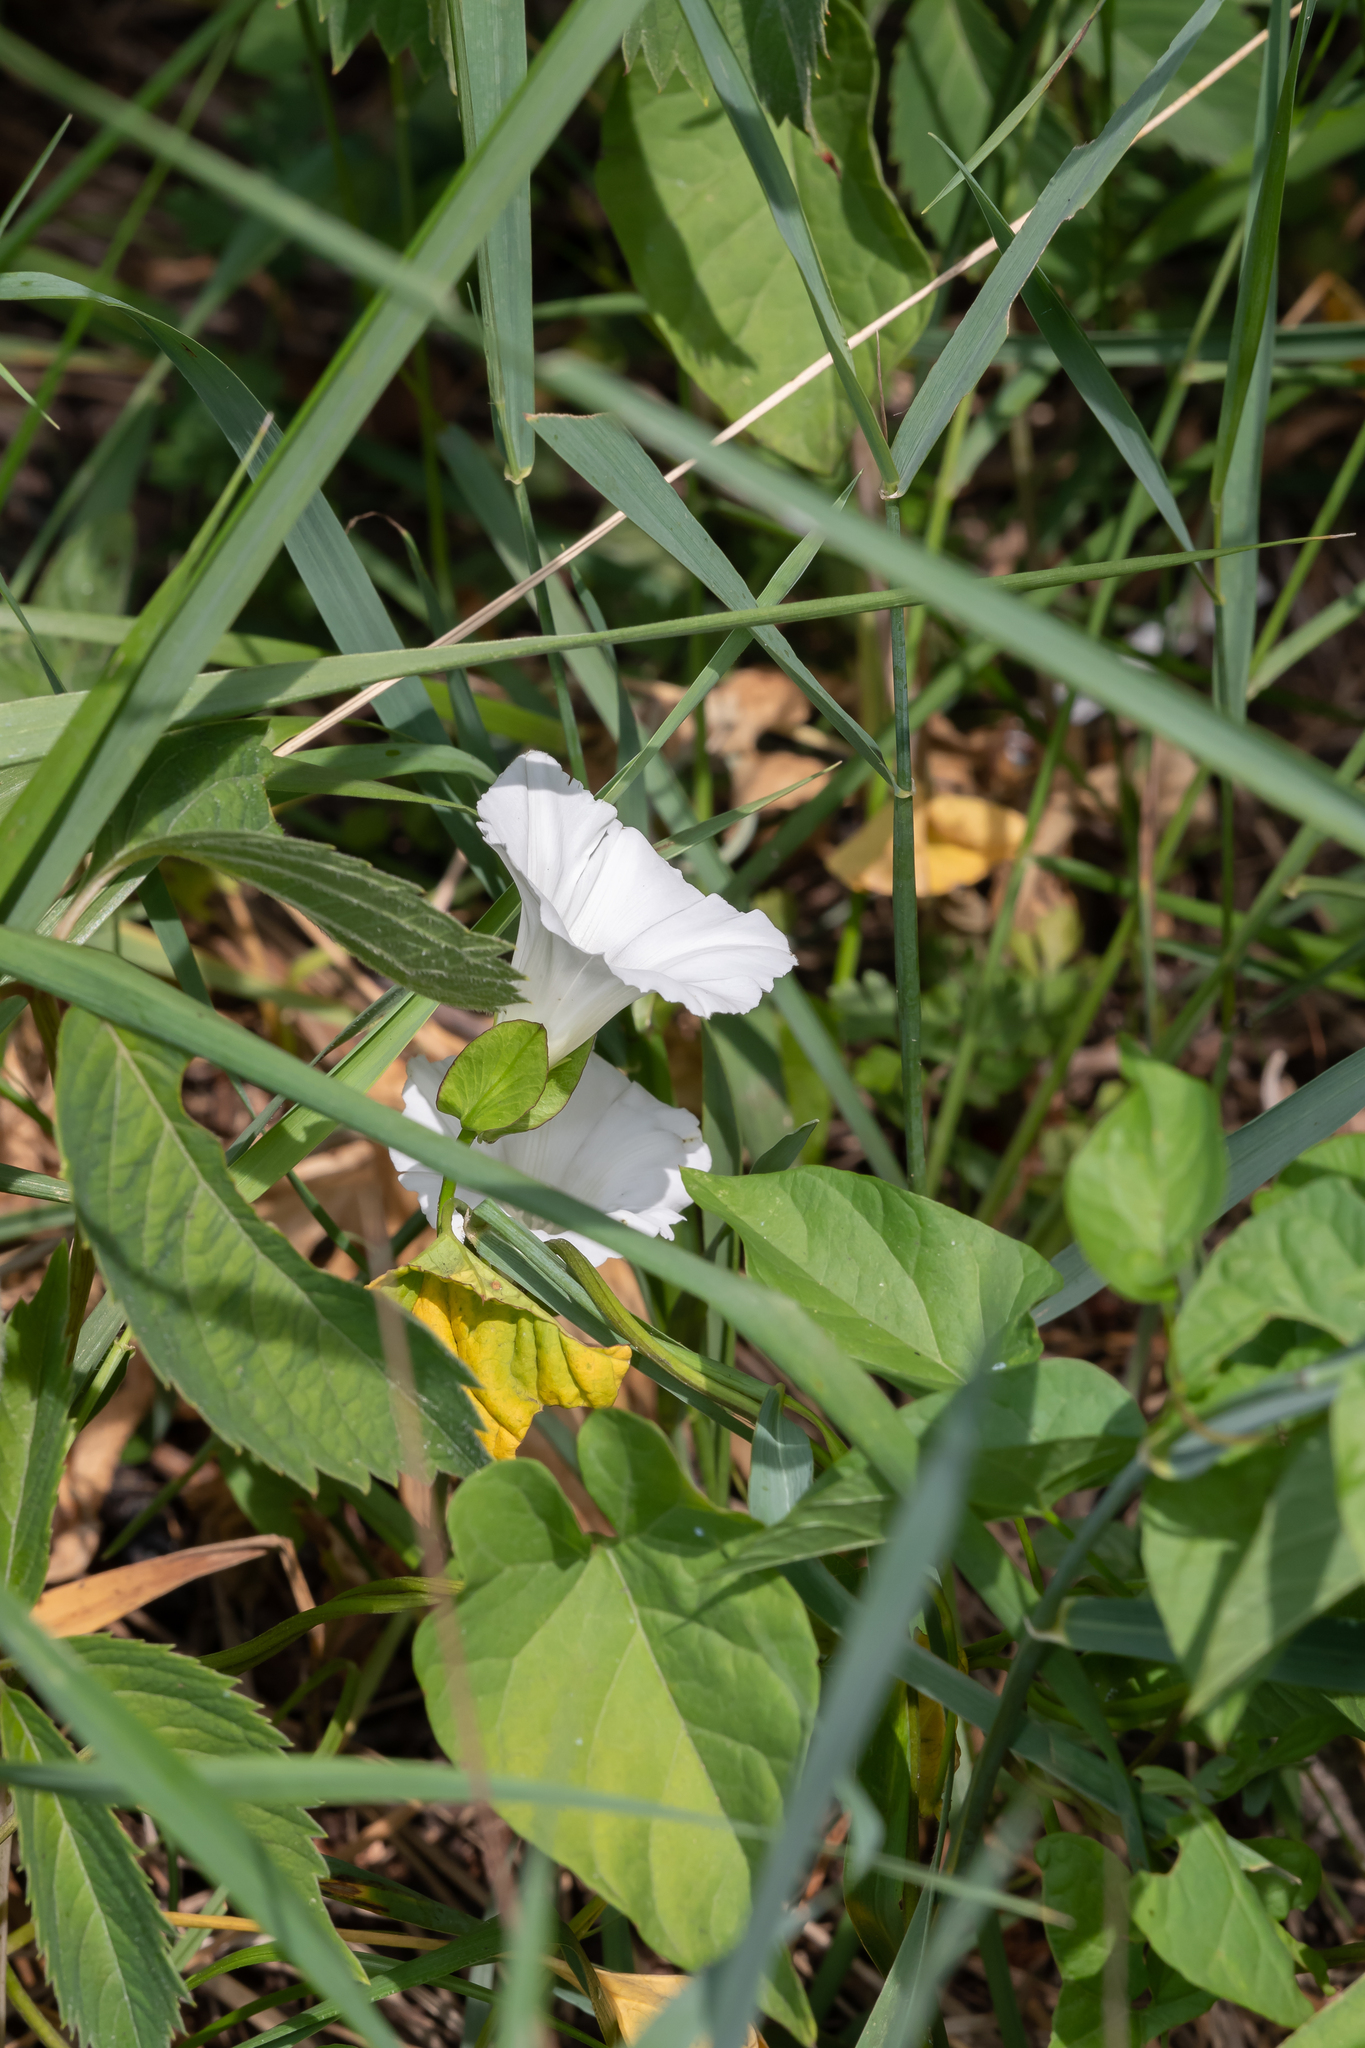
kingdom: Plantae
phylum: Tracheophyta
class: Magnoliopsida
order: Solanales
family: Convolvulaceae
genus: Calystegia
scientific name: Calystegia sepium
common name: Hedge bindweed
